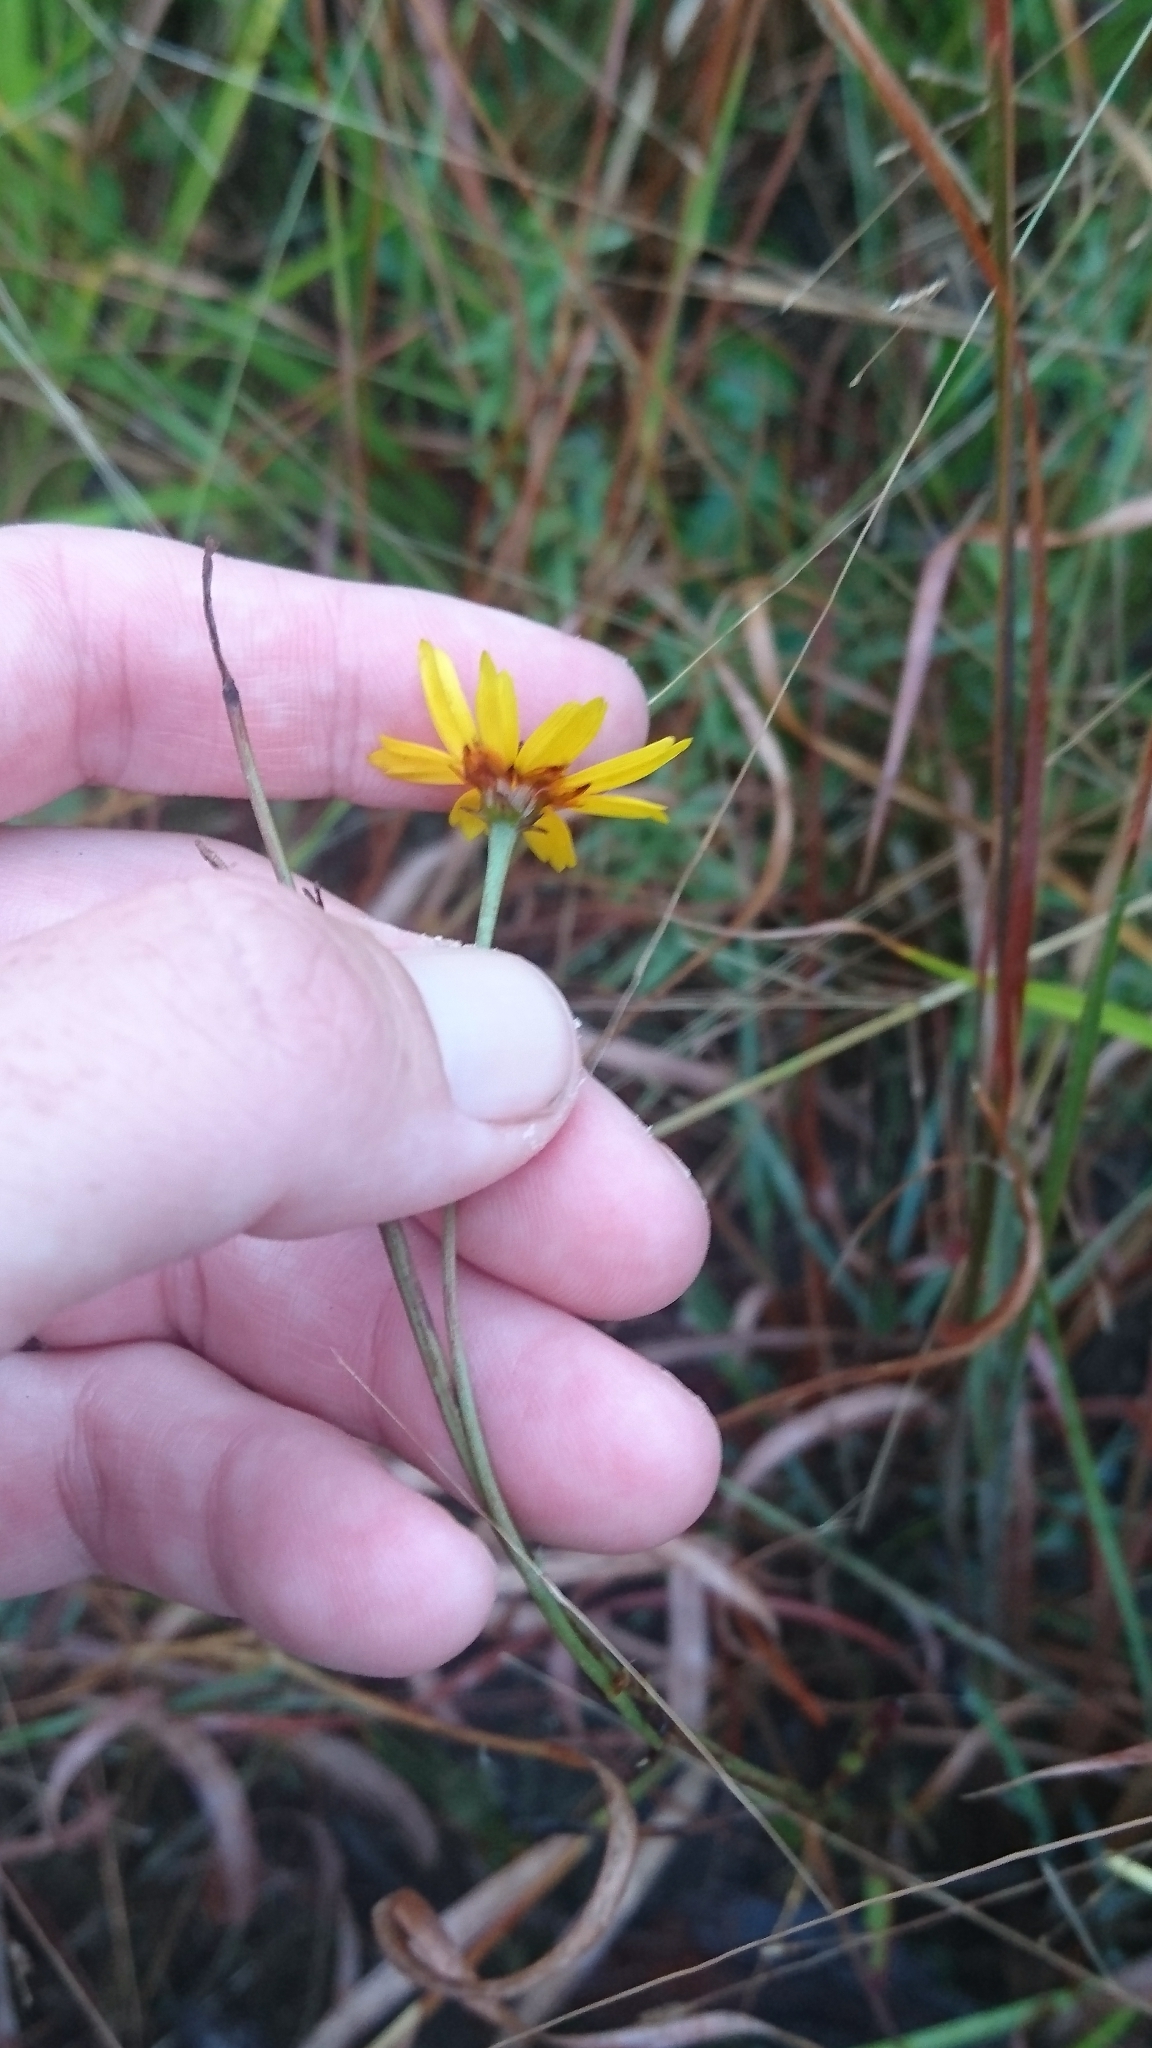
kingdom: Plantae
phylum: Tracheophyta
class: Magnoliopsida
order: Asterales
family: Asteraceae
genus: Coreopsis
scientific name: Coreopsis gladiata
